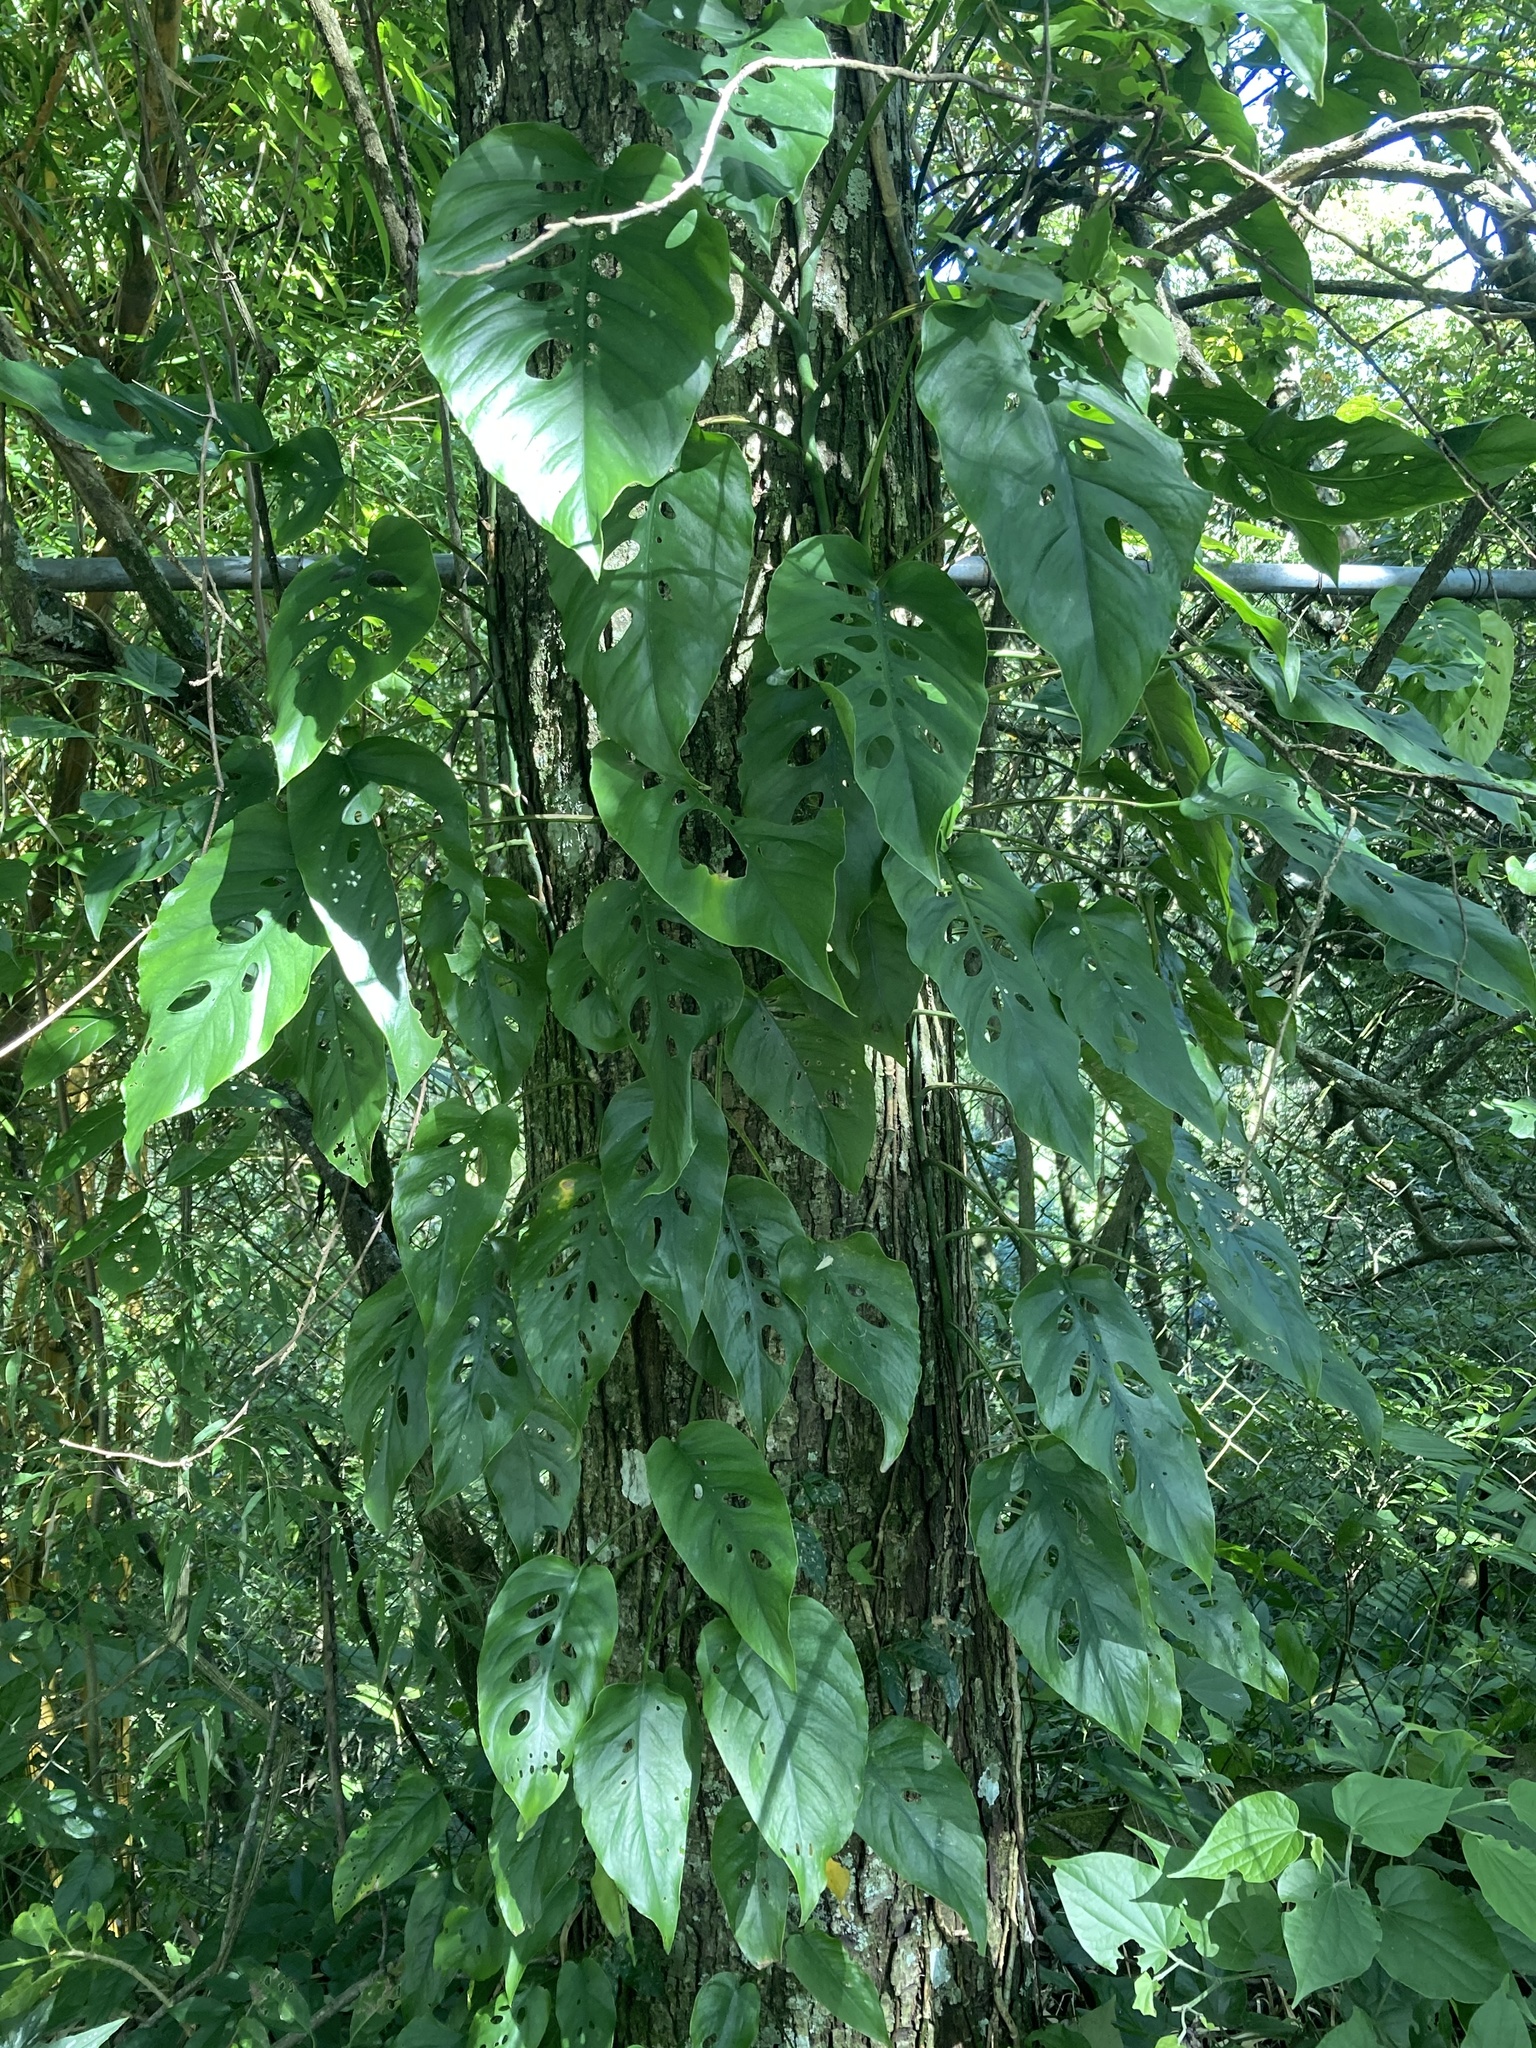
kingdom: Plantae
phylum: Tracheophyta
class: Liliopsida
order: Alismatales
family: Araceae
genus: Monstera
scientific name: Monstera siltepecana
